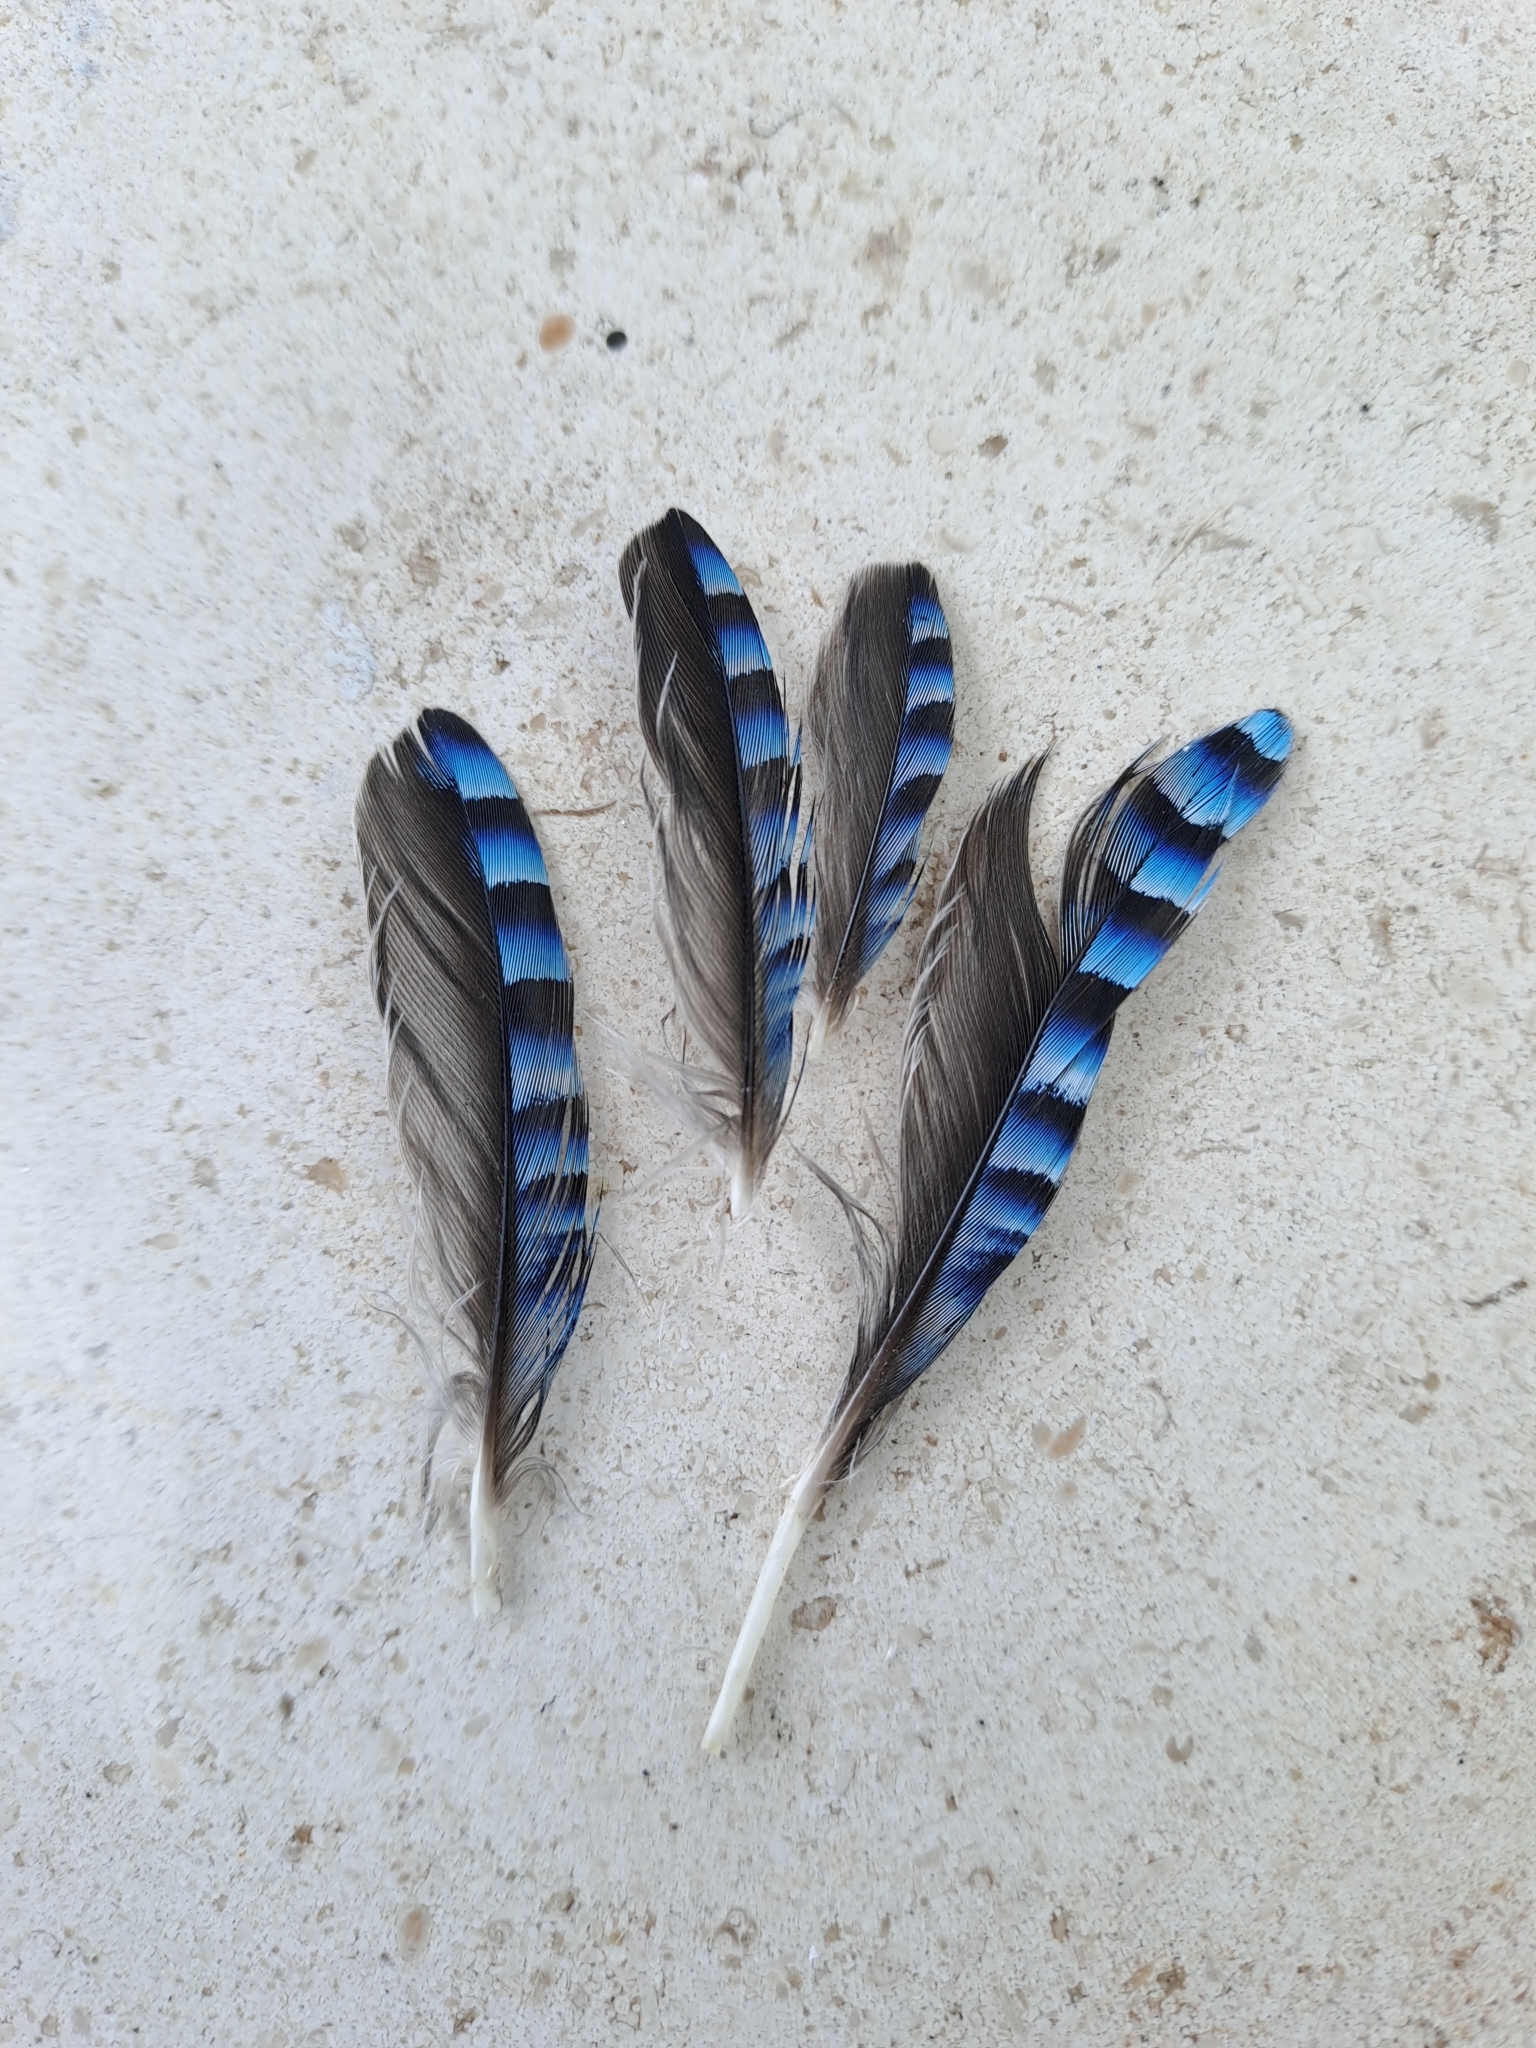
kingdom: Animalia
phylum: Chordata
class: Aves
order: Passeriformes
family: Corvidae
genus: Garrulus
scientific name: Garrulus glandarius
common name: Eurasian jay
